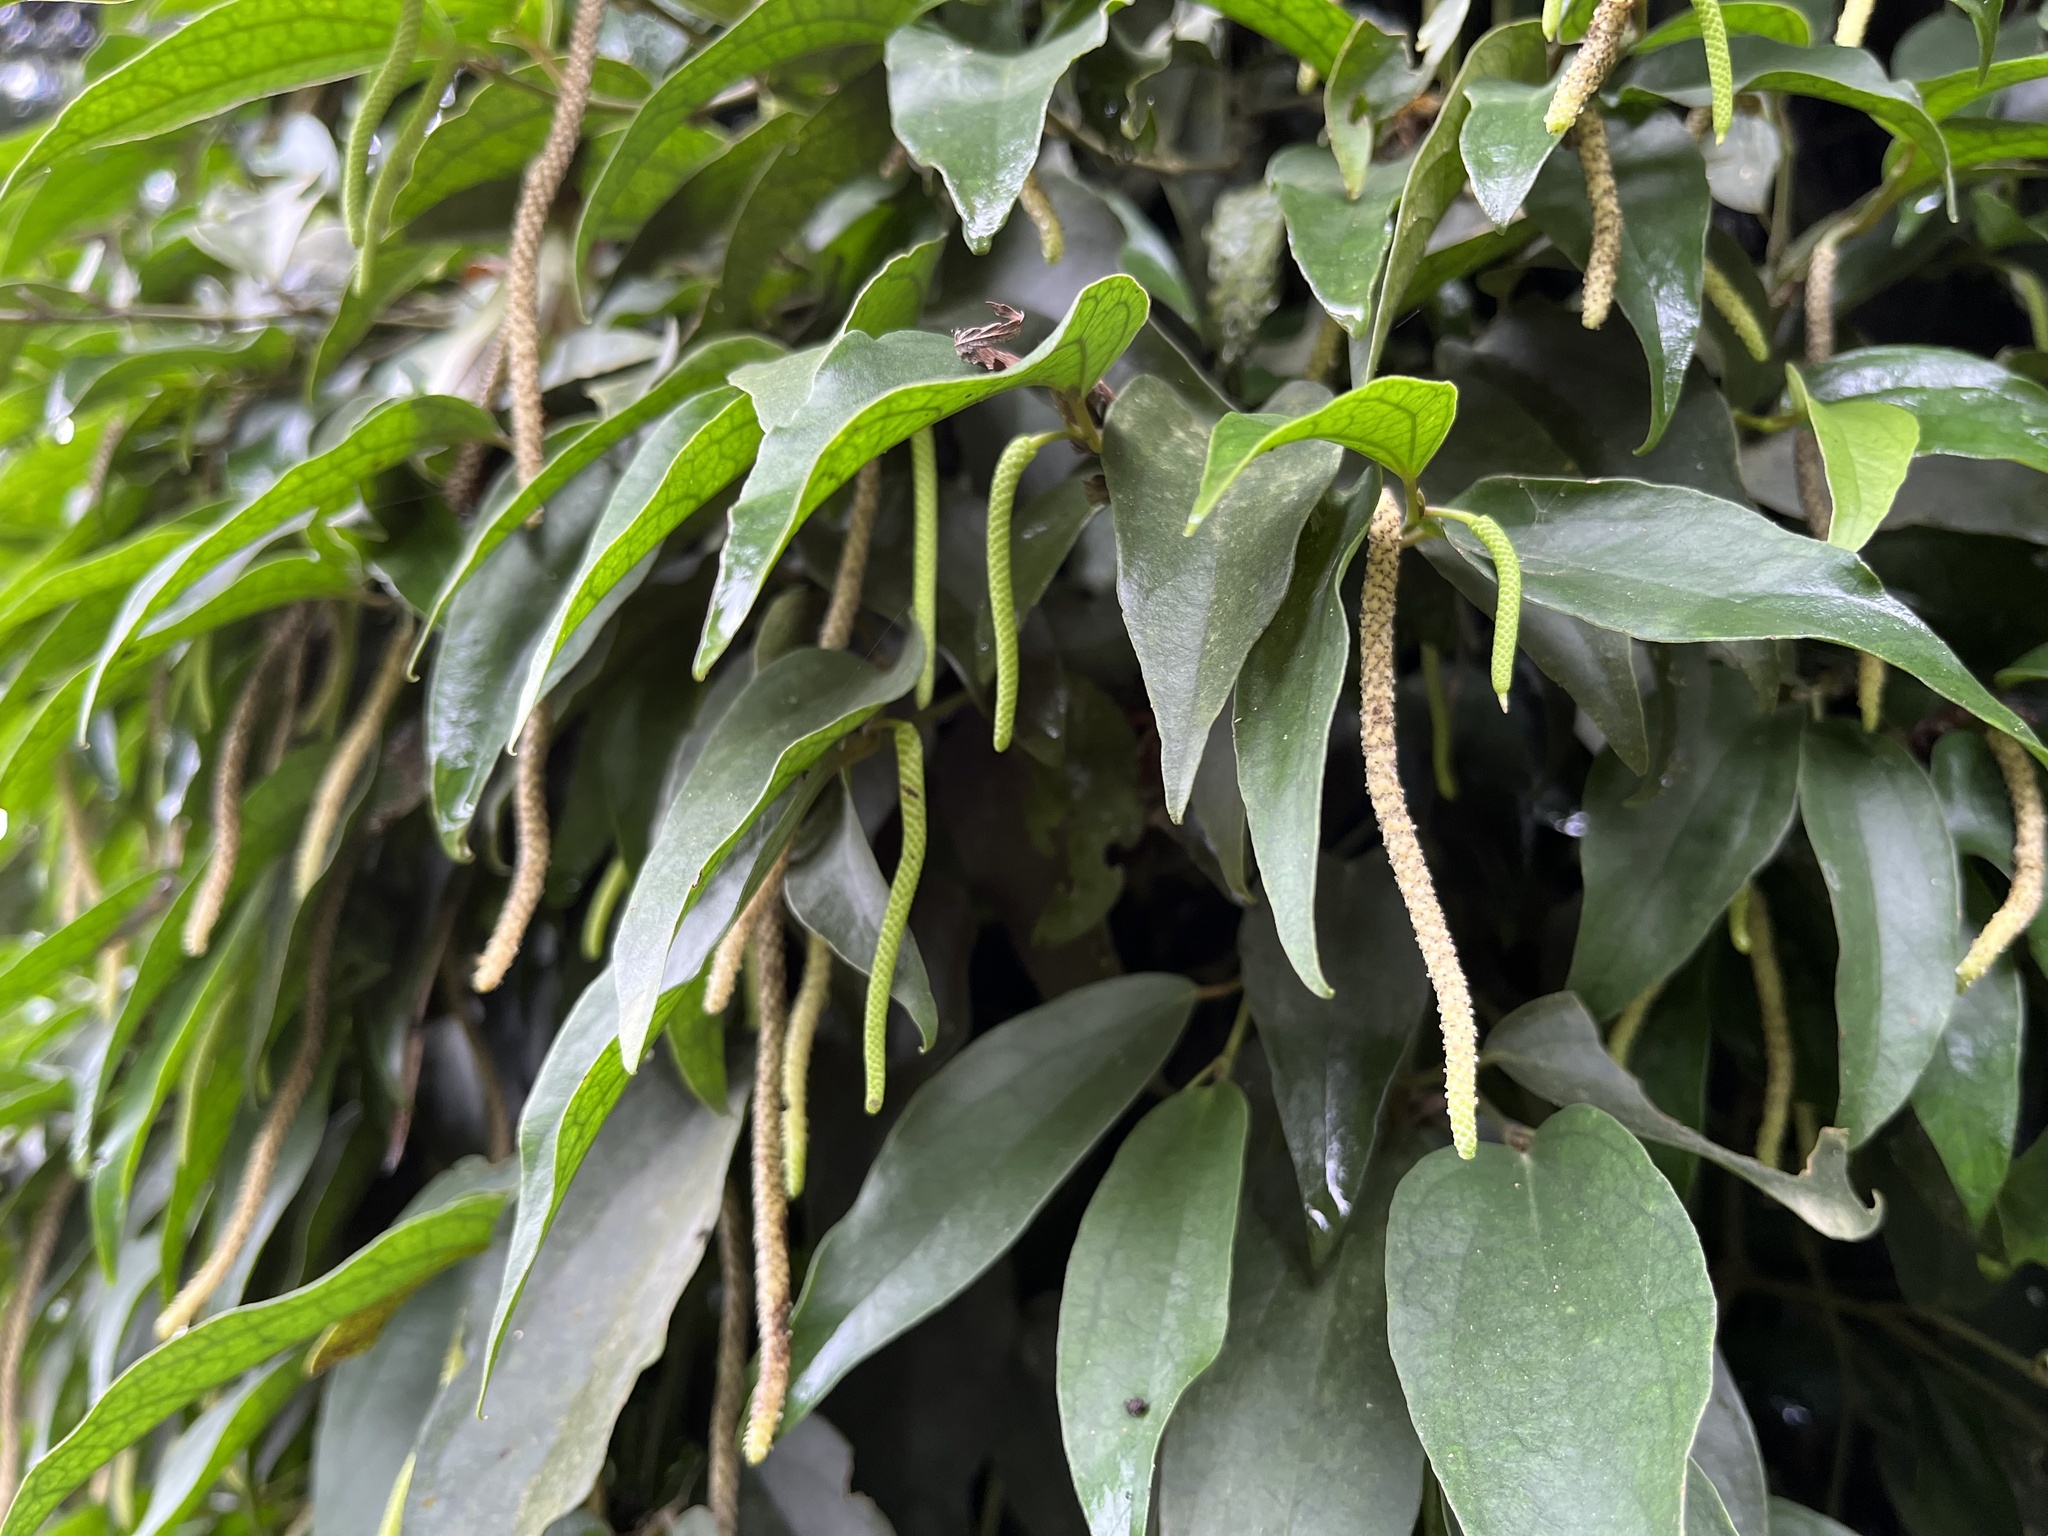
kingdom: Plantae
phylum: Tracheophyta
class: Magnoliopsida
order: Piperales
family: Piperaceae
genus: Piper
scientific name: Piper taiwanense
